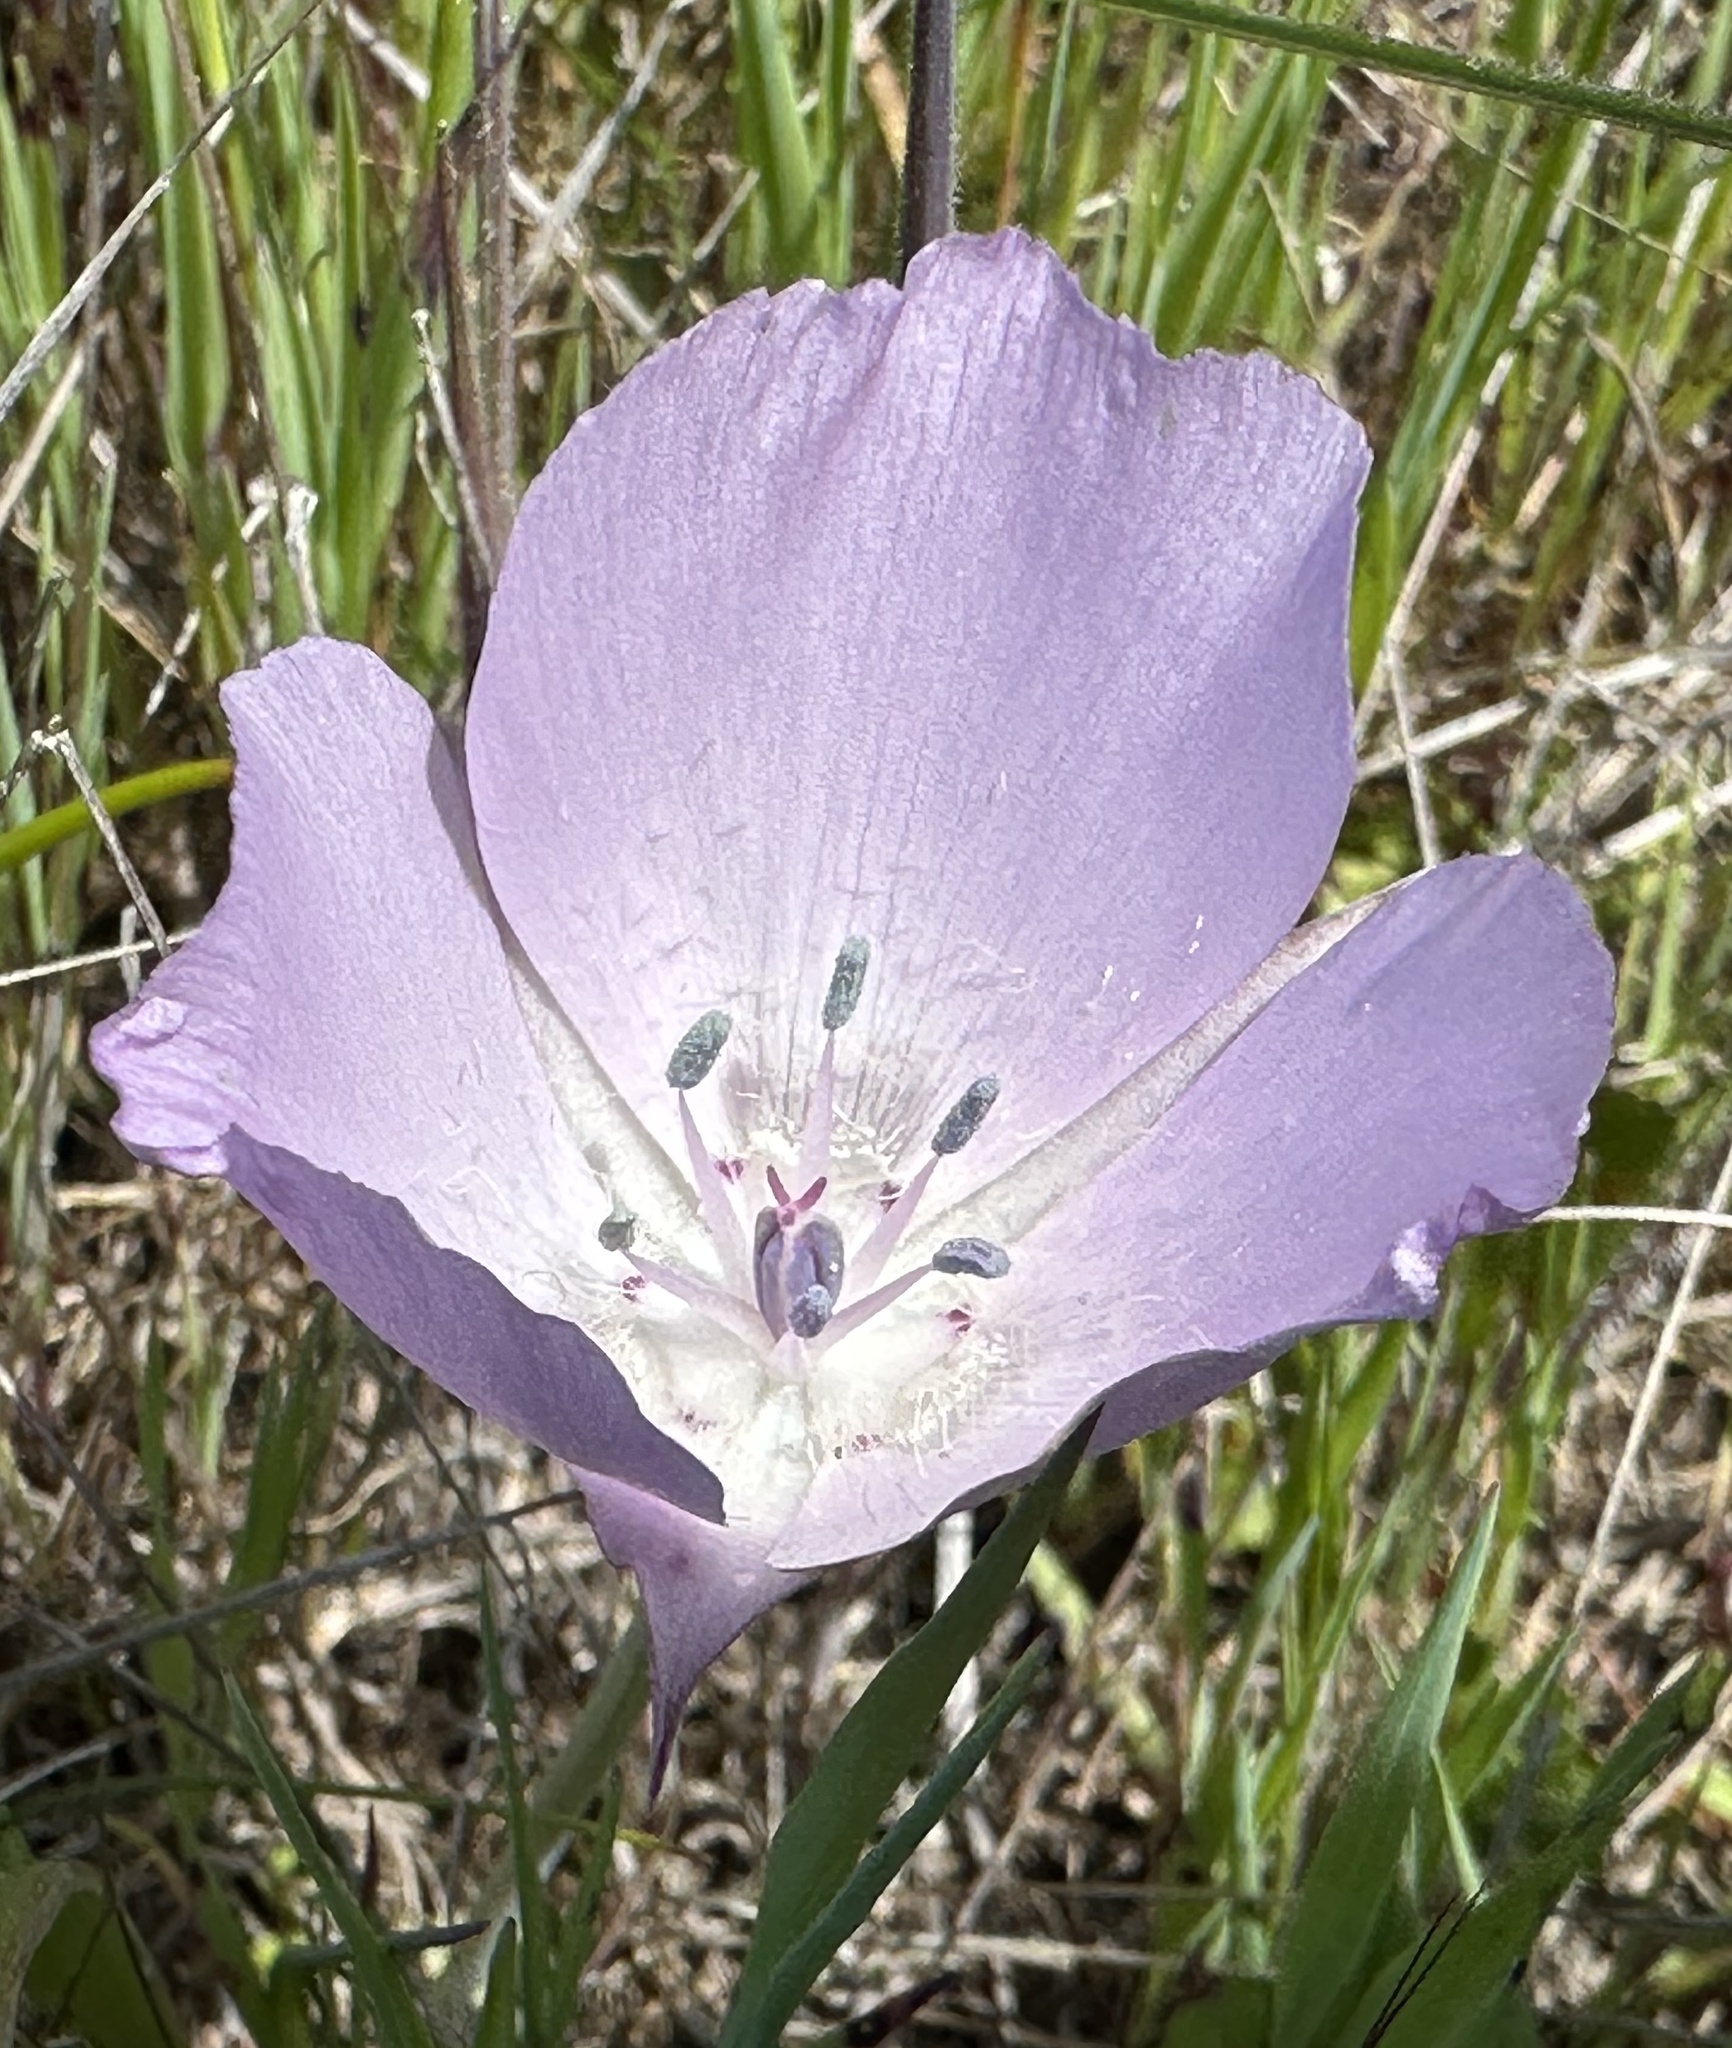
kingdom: Plantae
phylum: Tracheophyta
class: Liliopsida
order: Liliales
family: Liliaceae
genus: Calochortus
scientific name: Calochortus uniflorus
